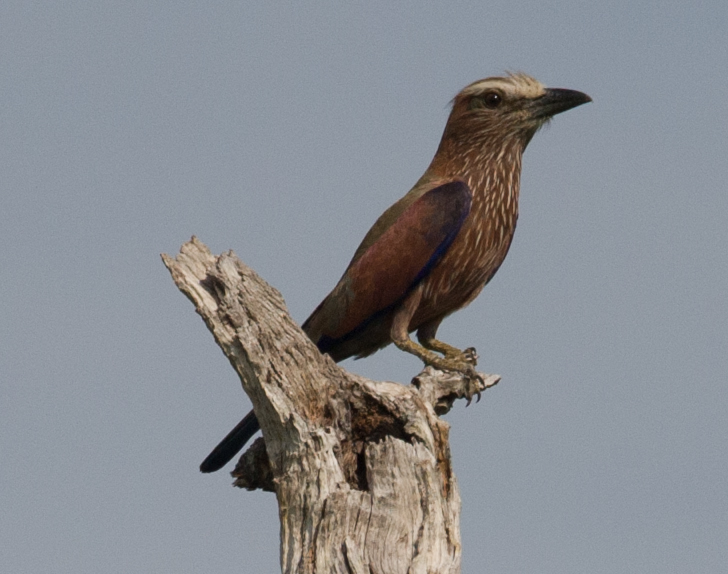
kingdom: Animalia
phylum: Chordata
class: Aves
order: Coraciiformes
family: Coraciidae
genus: Coracias
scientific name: Coracias naevius
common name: Purple roller
